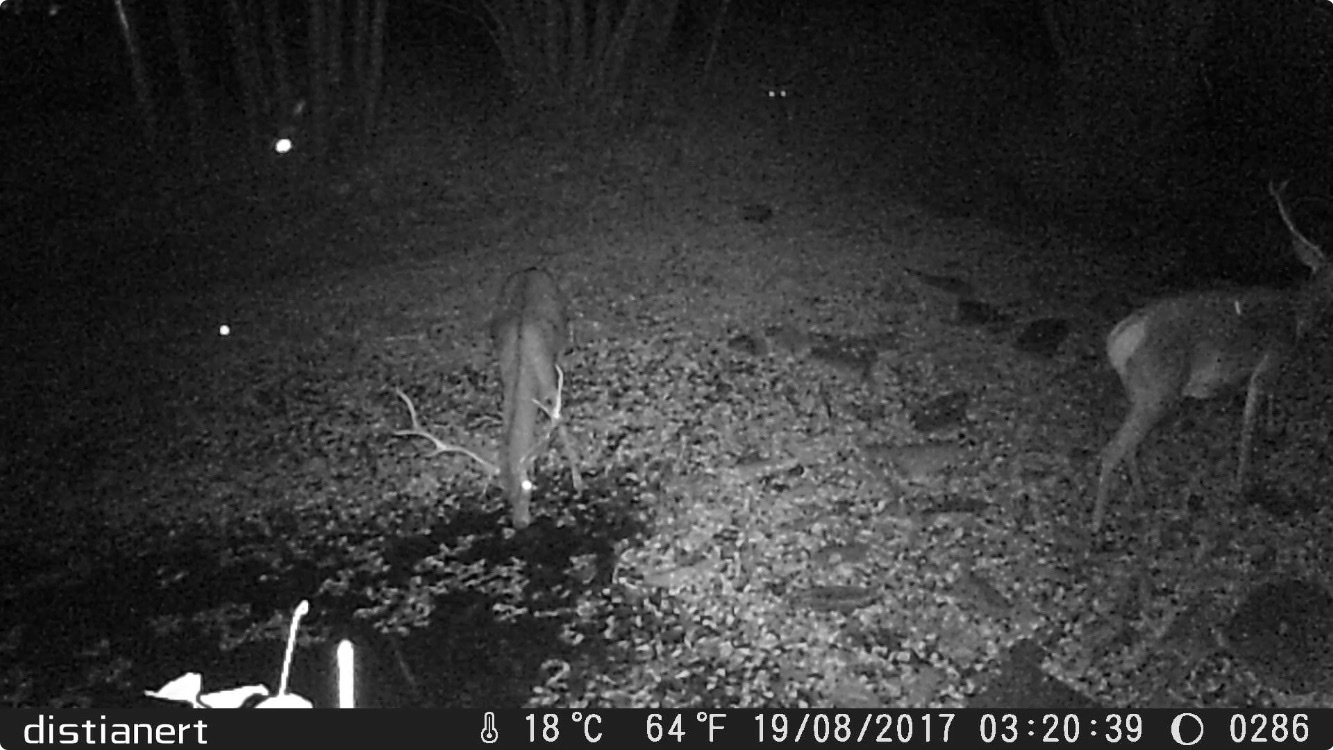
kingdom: Animalia
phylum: Chordata
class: Mammalia
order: Artiodactyla
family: Cervidae
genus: Cervus
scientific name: Cervus elaphus
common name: Red deer
